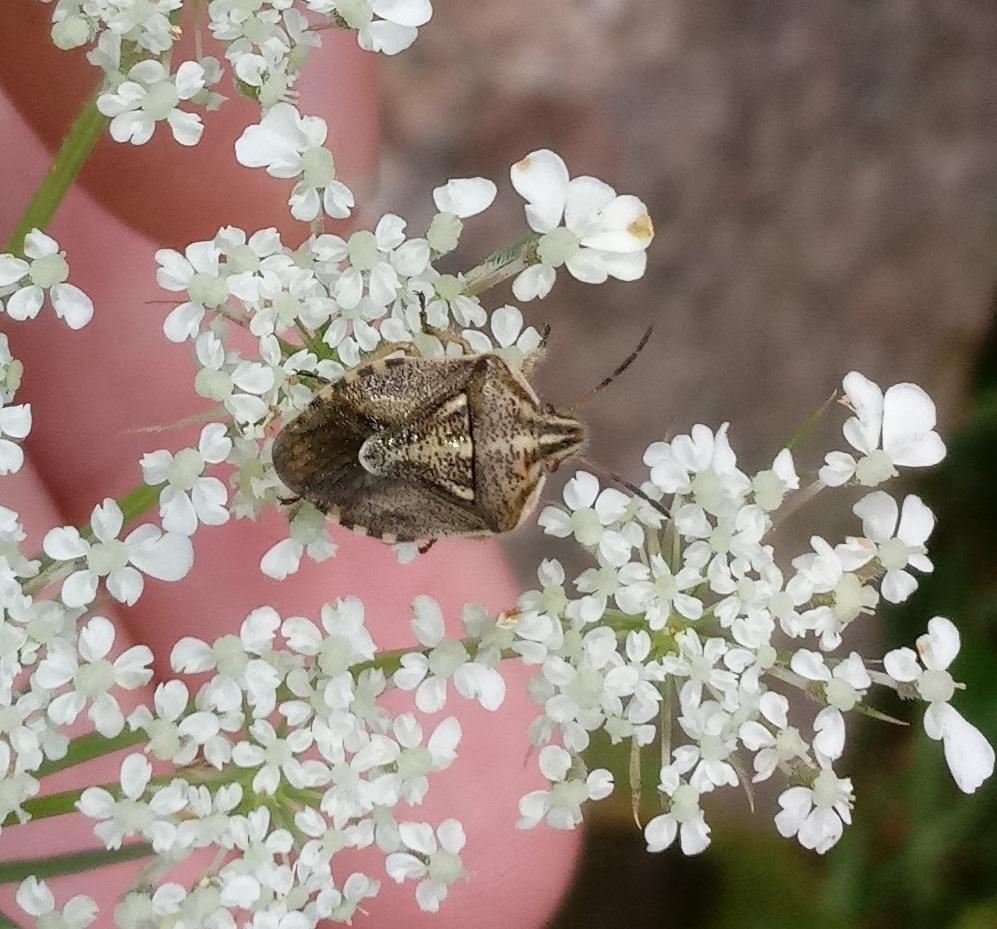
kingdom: Animalia
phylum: Arthropoda
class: Insecta
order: Hemiptera
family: Pentatomidae
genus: Trichopepla
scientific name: Trichopepla semivittata
